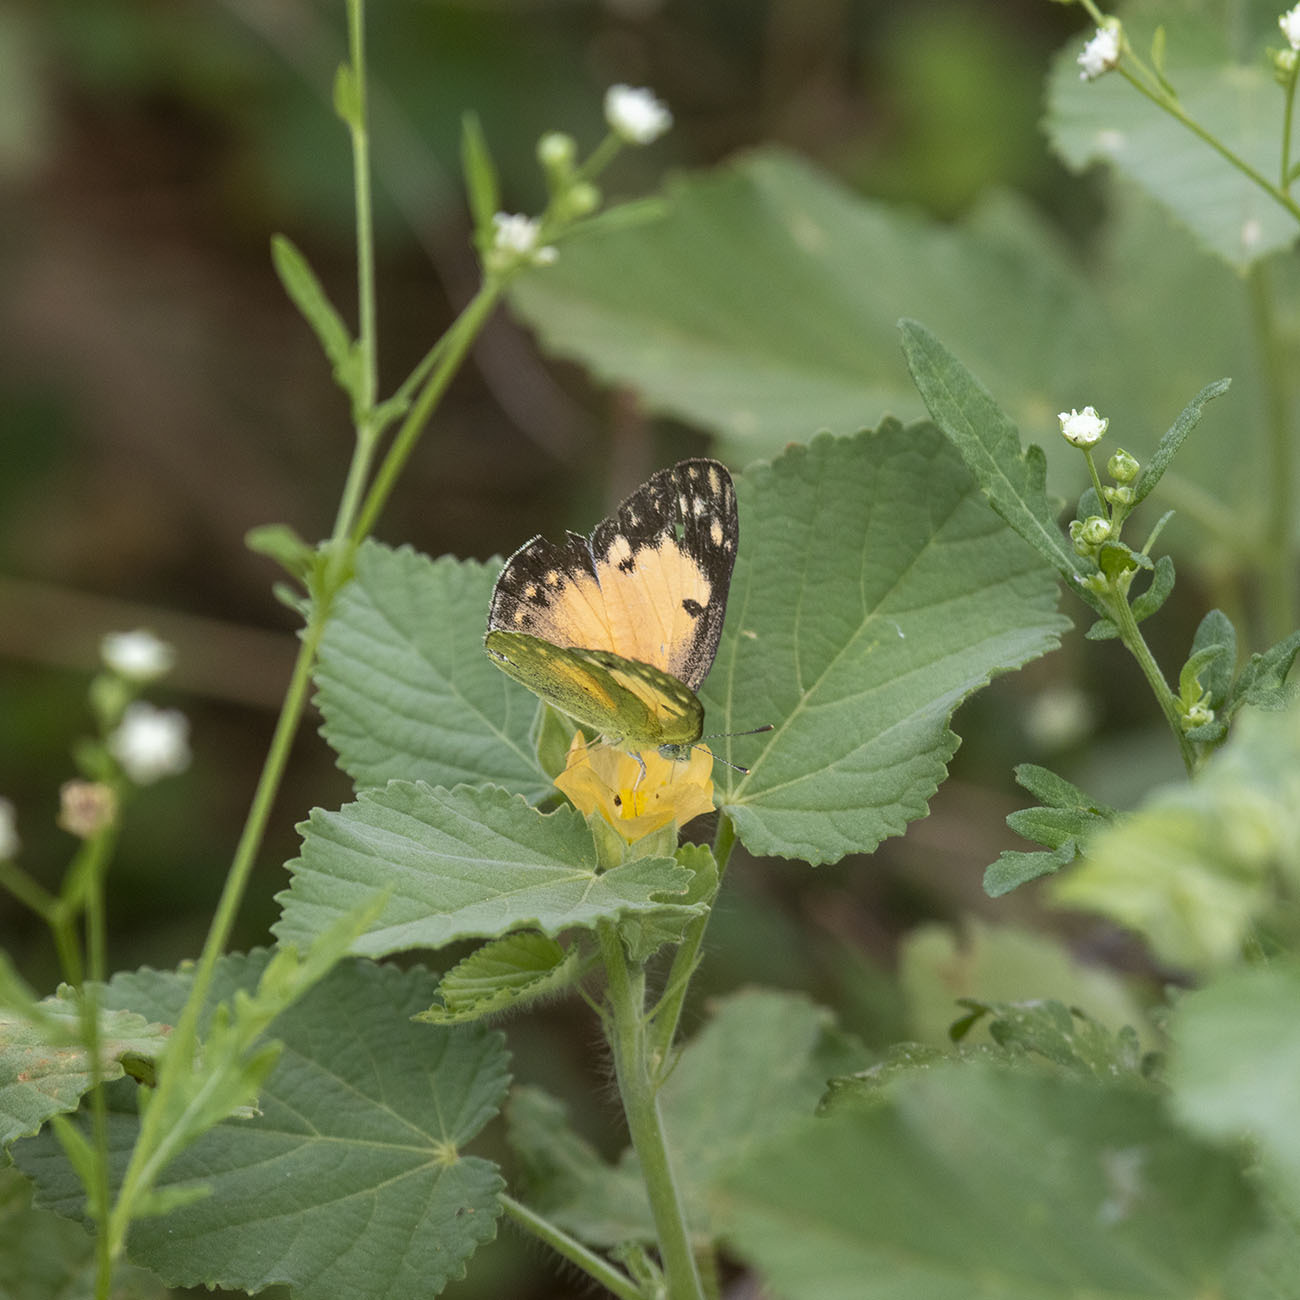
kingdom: Animalia
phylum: Arthropoda
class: Insecta
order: Lepidoptera
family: Pieridae
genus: Colotis
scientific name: Colotis amata
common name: Small salmon arab
